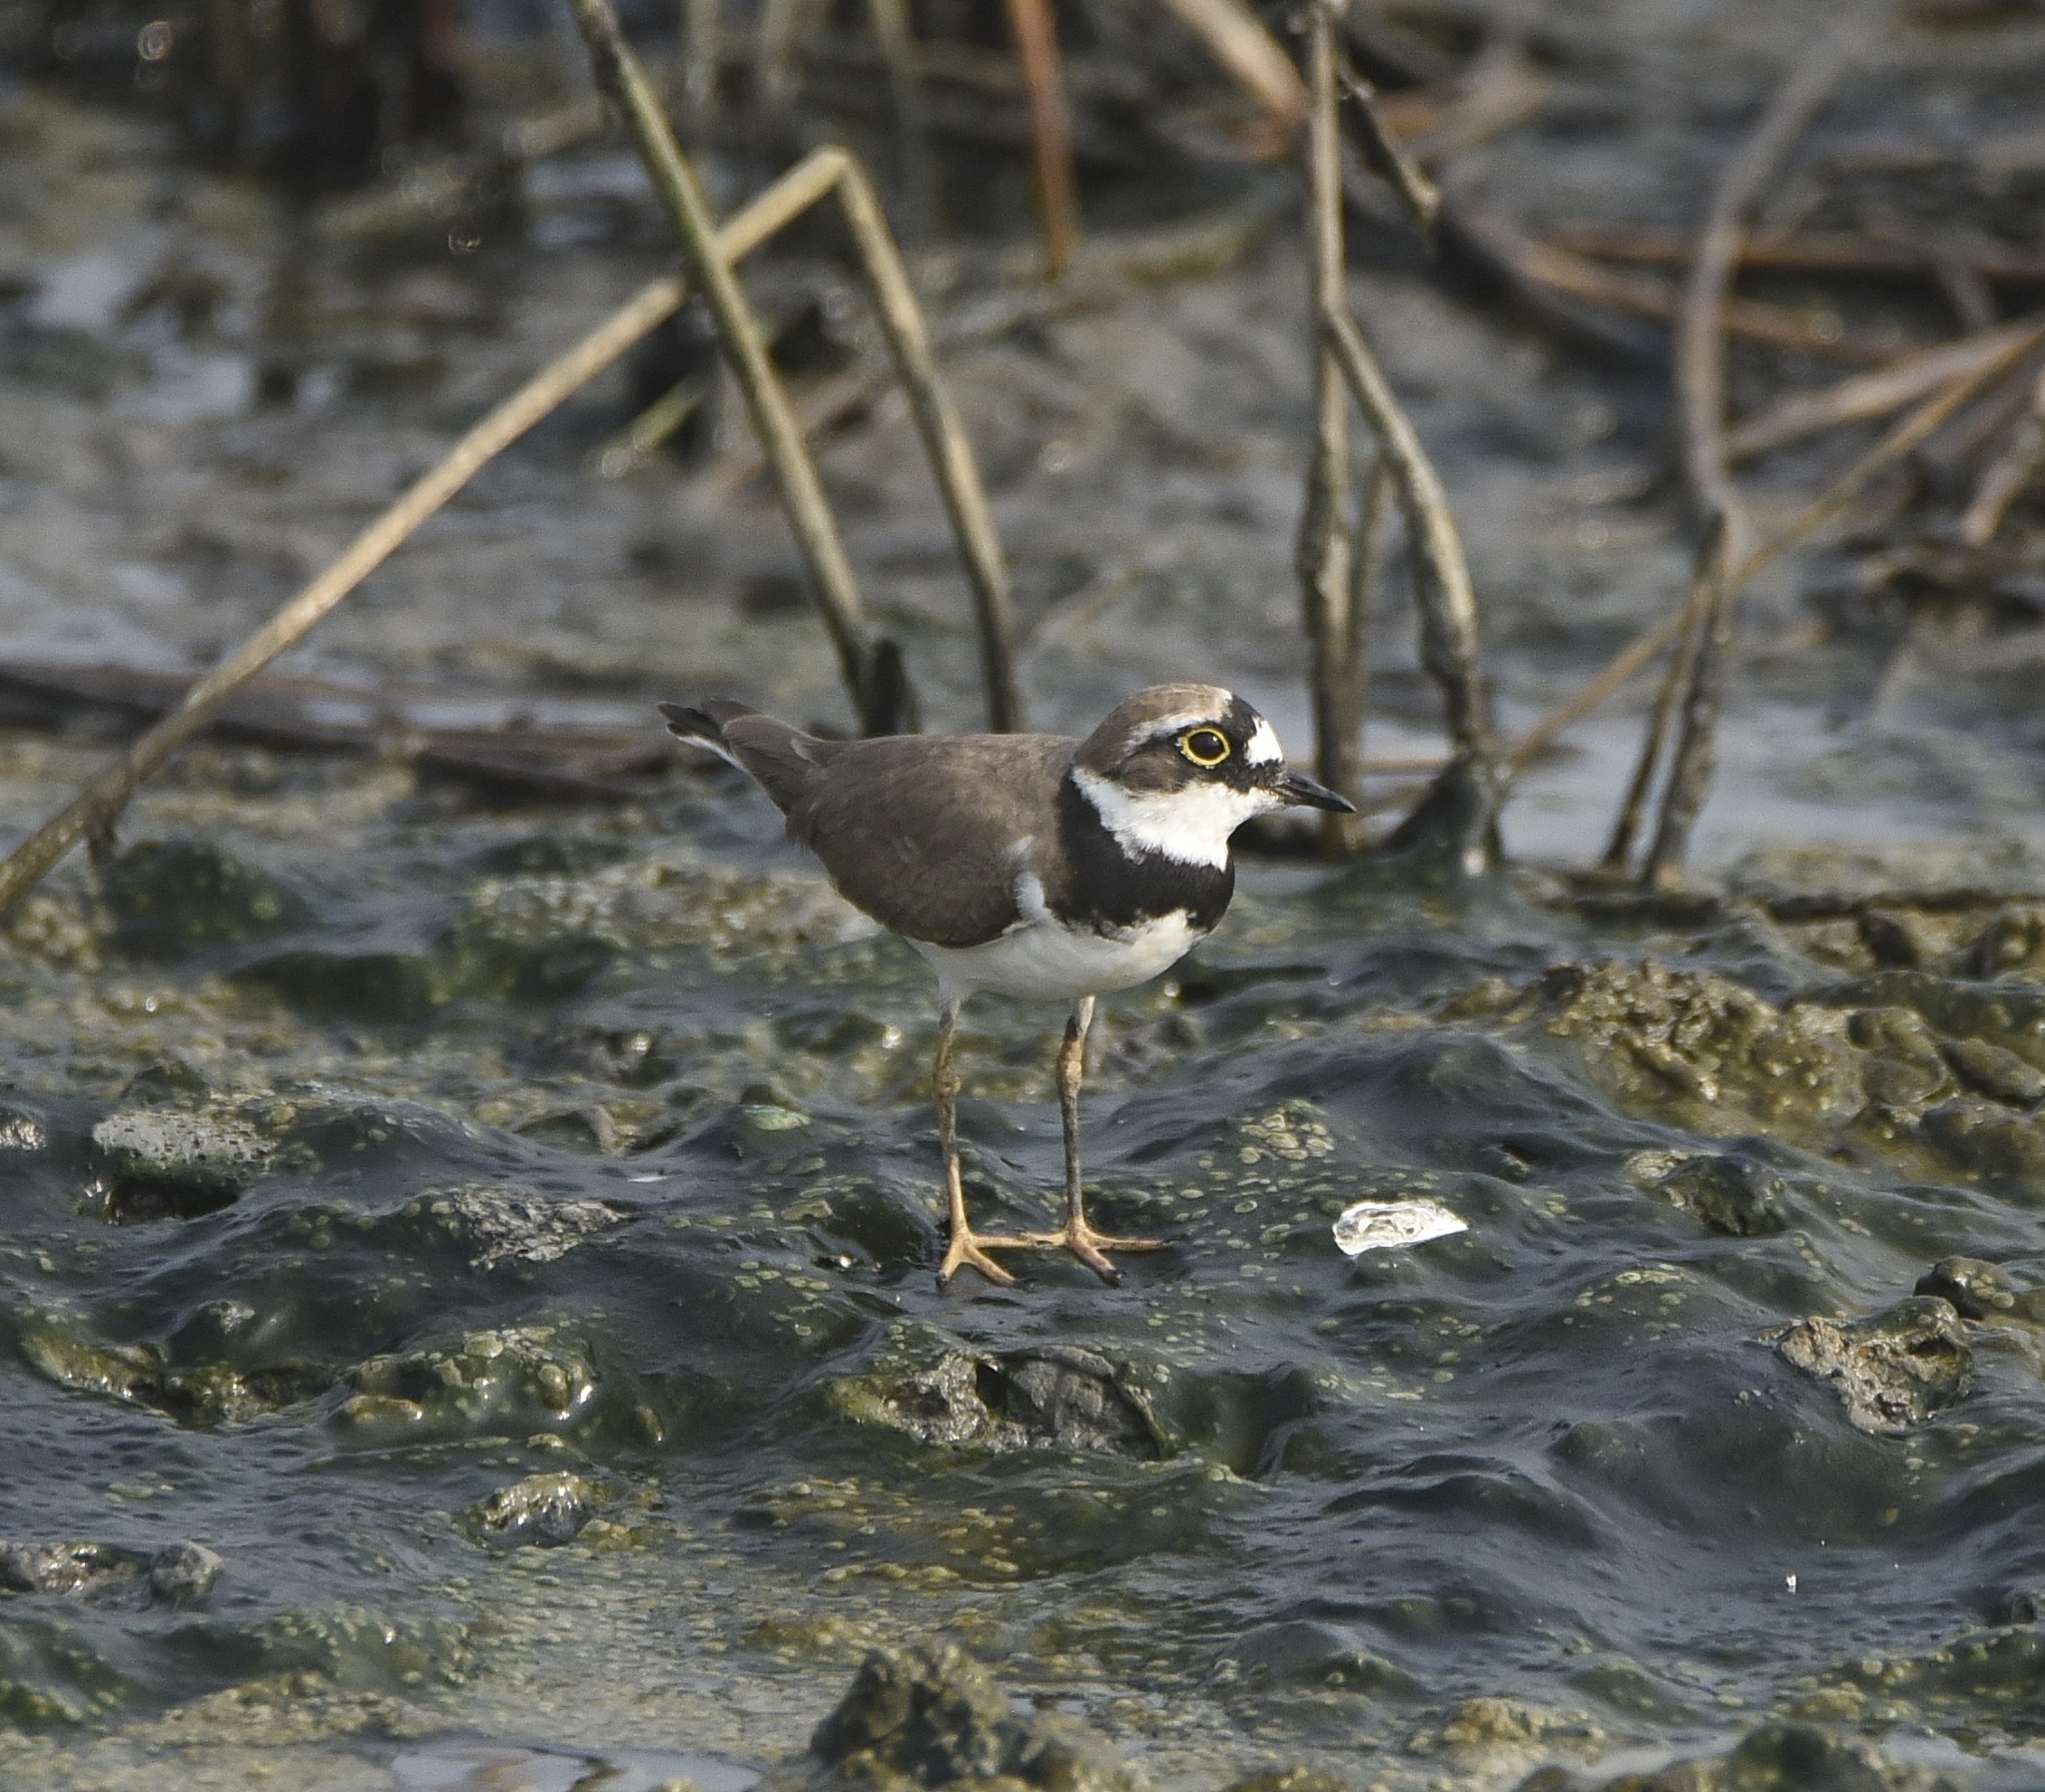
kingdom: Animalia
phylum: Chordata
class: Aves
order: Charadriiformes
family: Charadriidae
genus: Charadrius
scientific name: Charadrius dubius
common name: Little ringed plover
